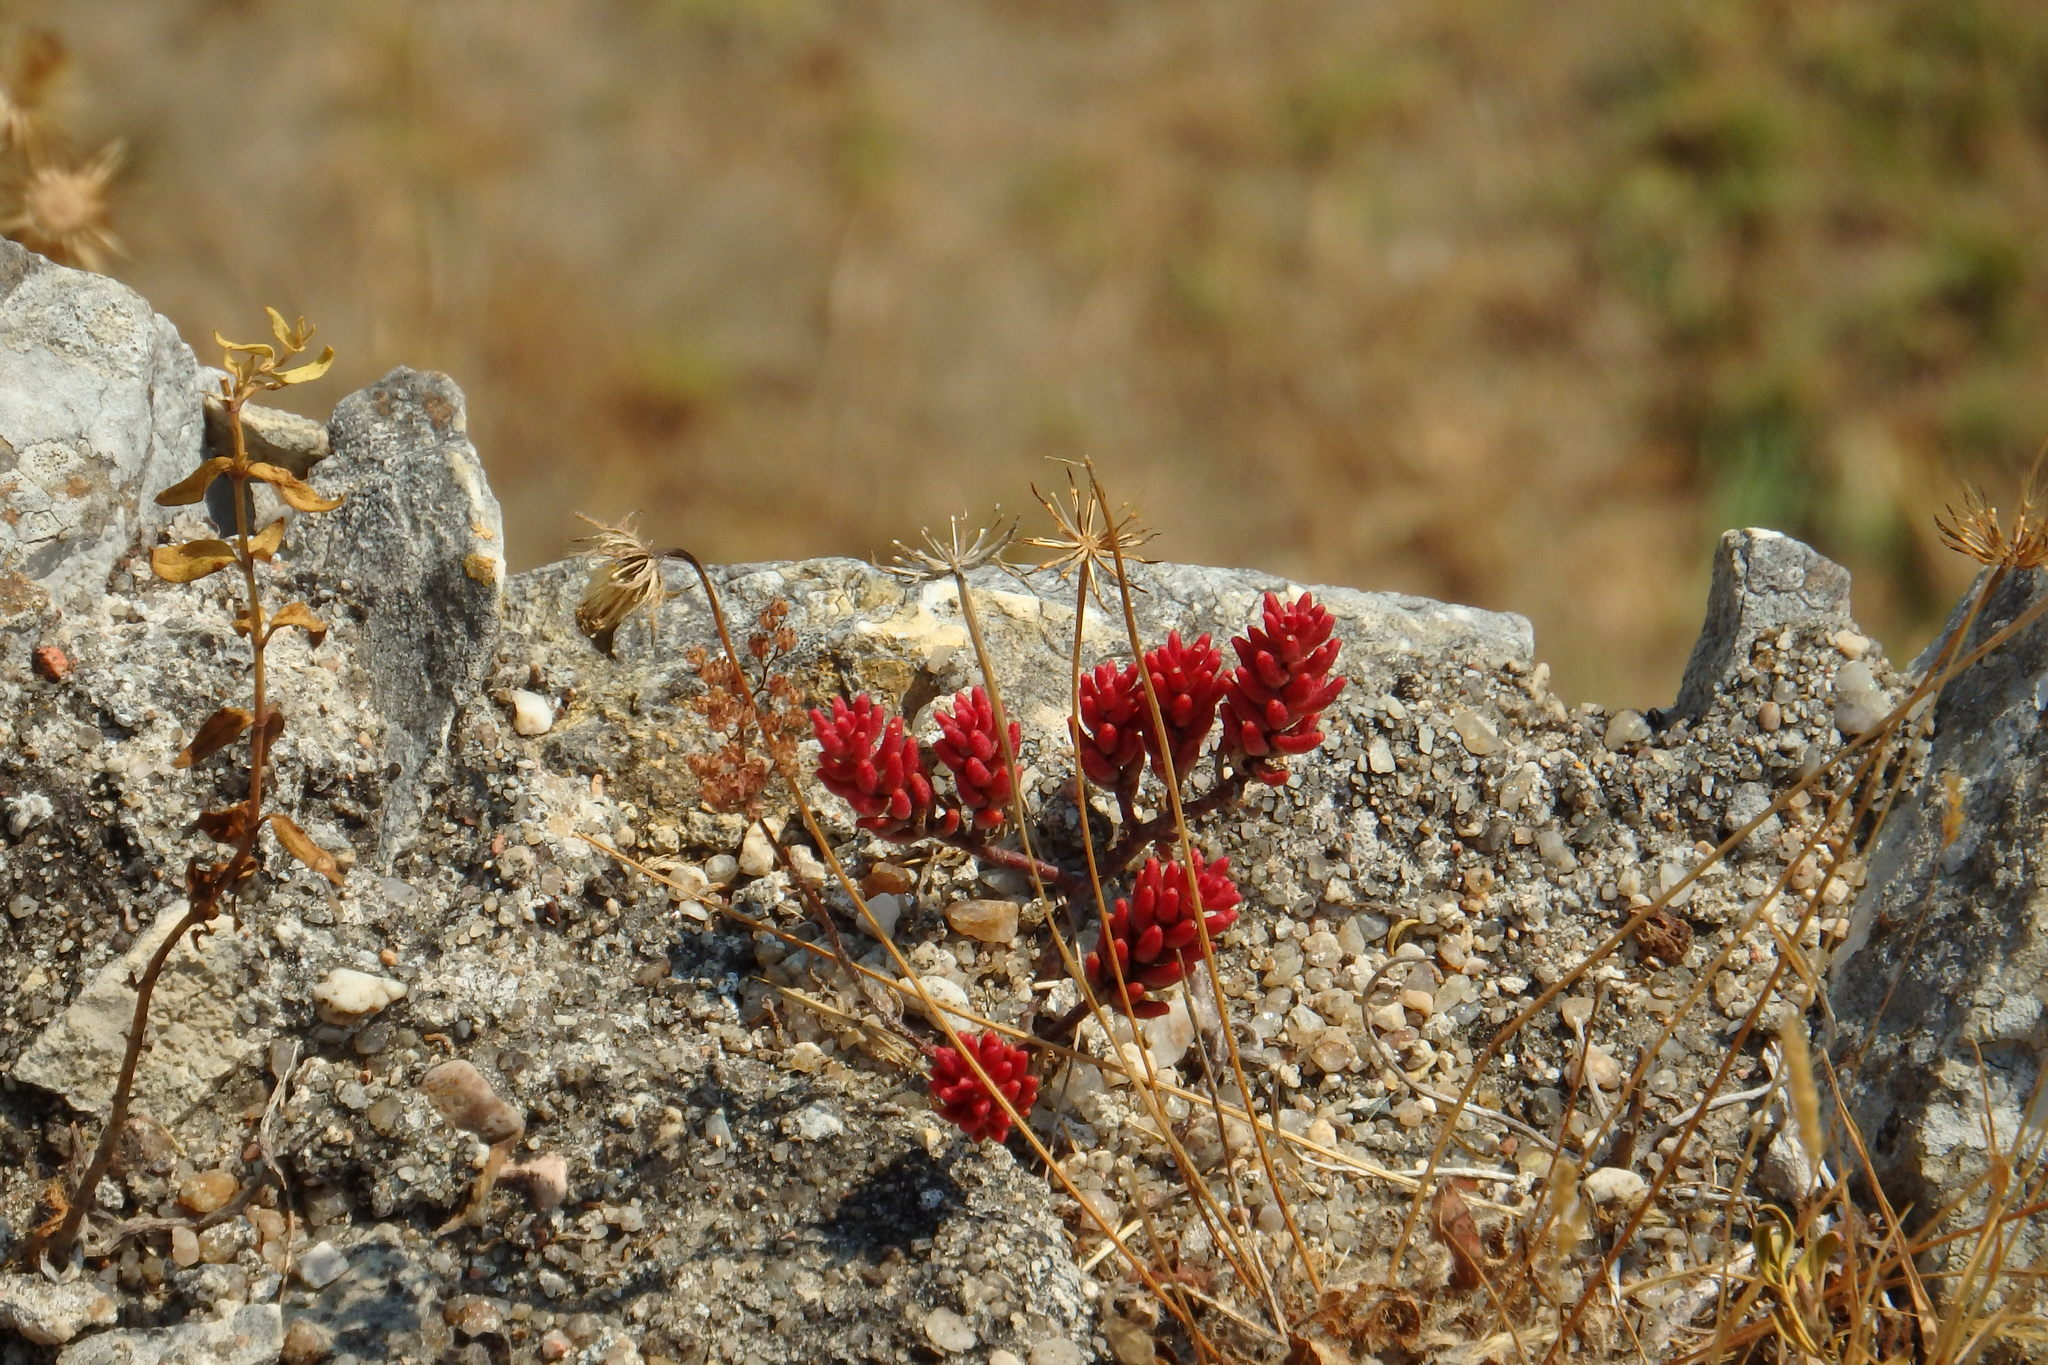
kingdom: Plantae
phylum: Tracheophyta
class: Magnoliopsida
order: Saxifragales
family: Crassulaceae
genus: Sedum
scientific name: Sedum album
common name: White stonecrop
